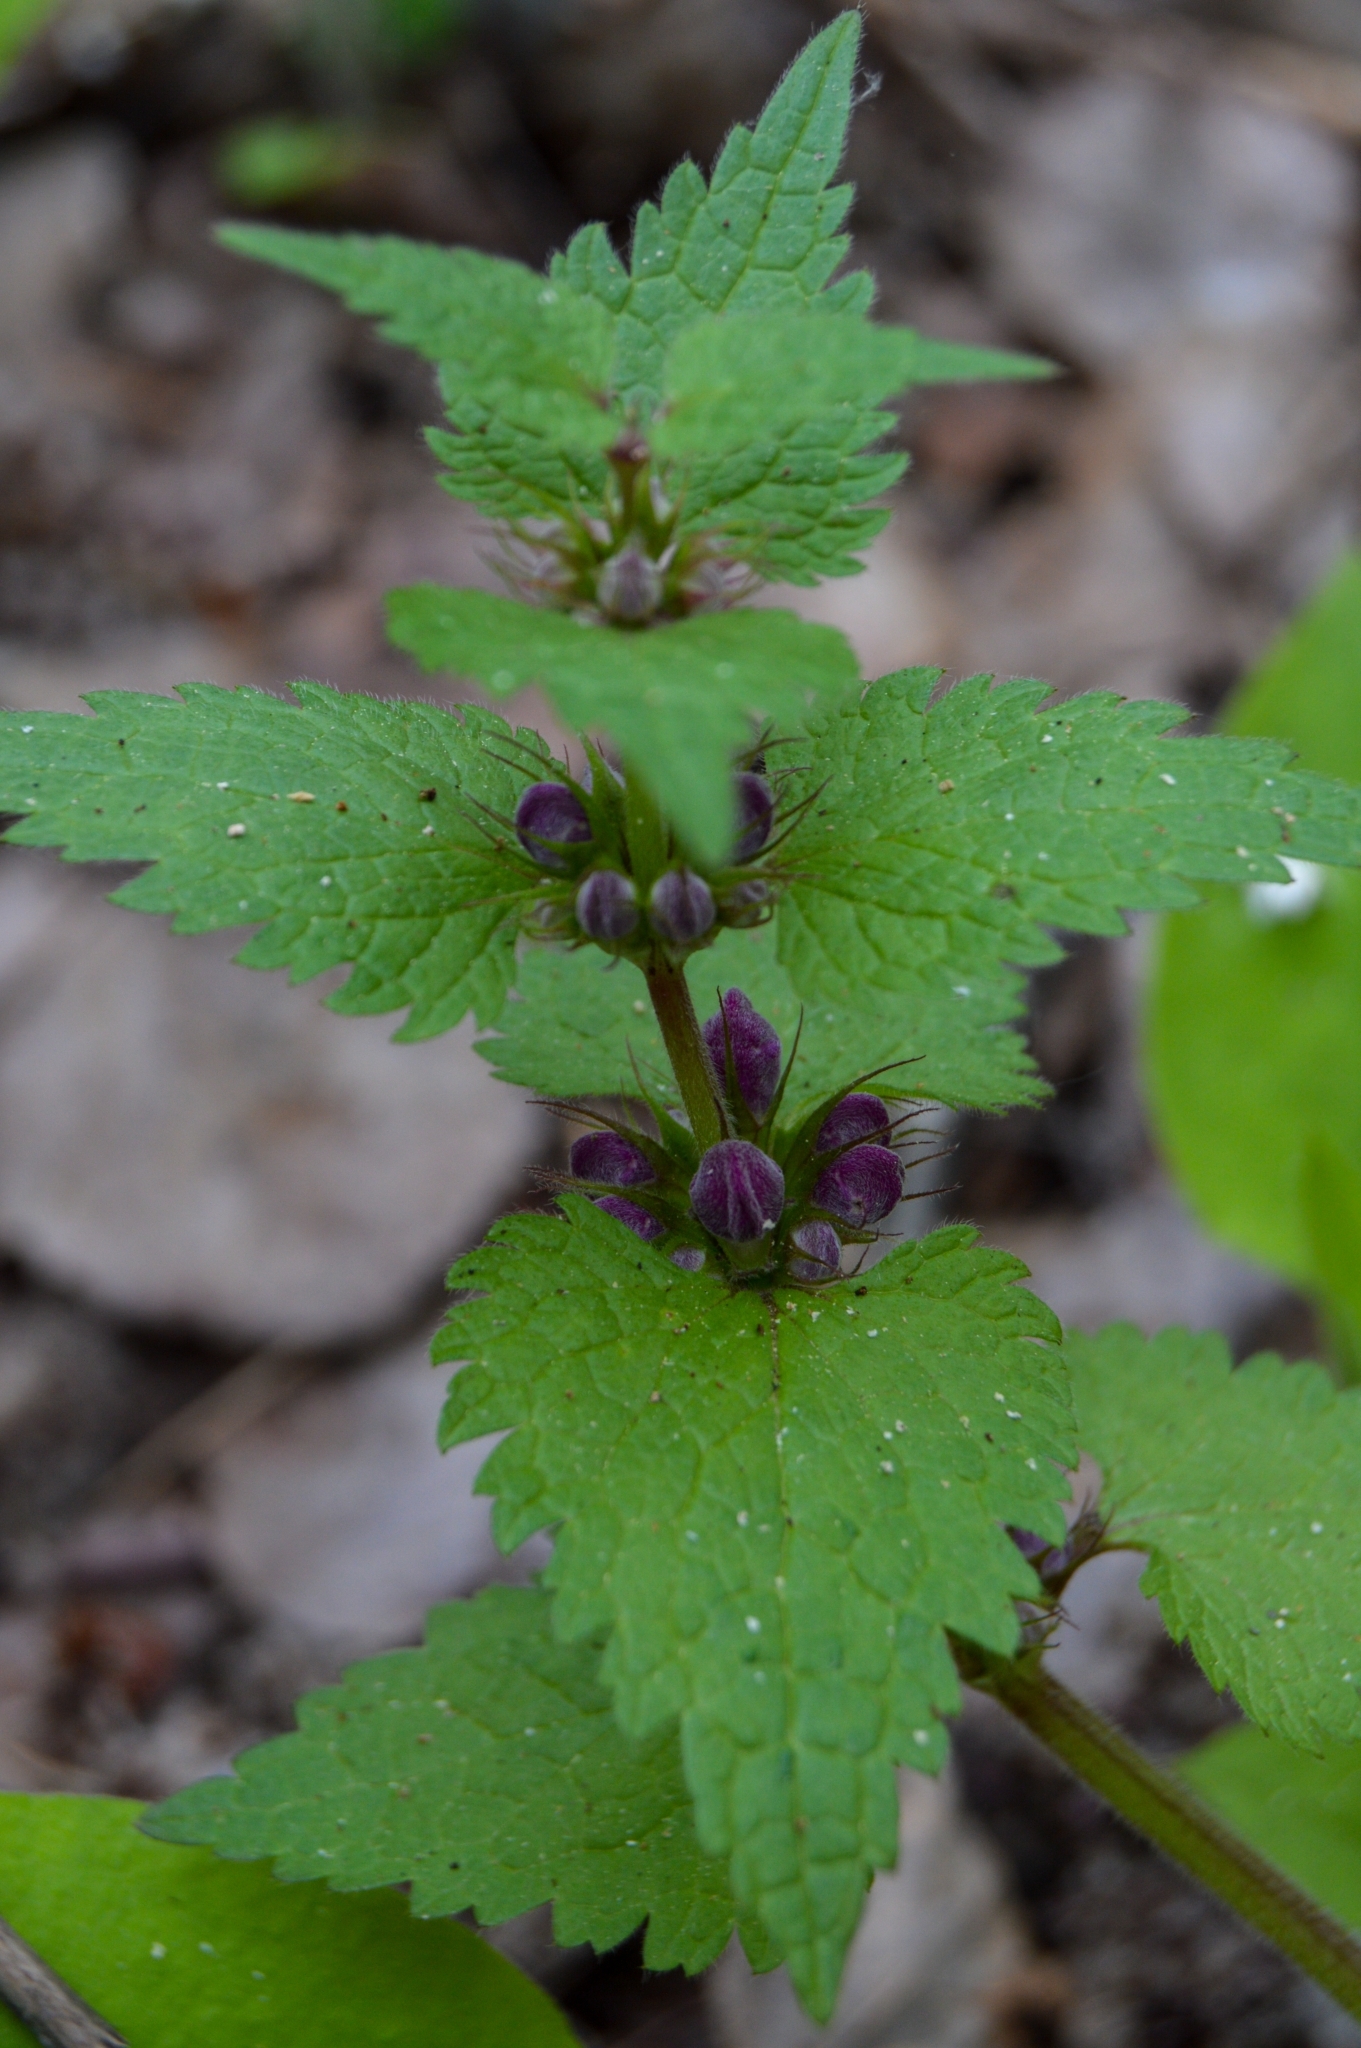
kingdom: Plantae
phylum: Tracheophyta
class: Magnoliopsida
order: Lamiales
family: Lamiaceae
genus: Lamium
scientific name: Lamium maculatum
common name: Spotted dead-nettle
